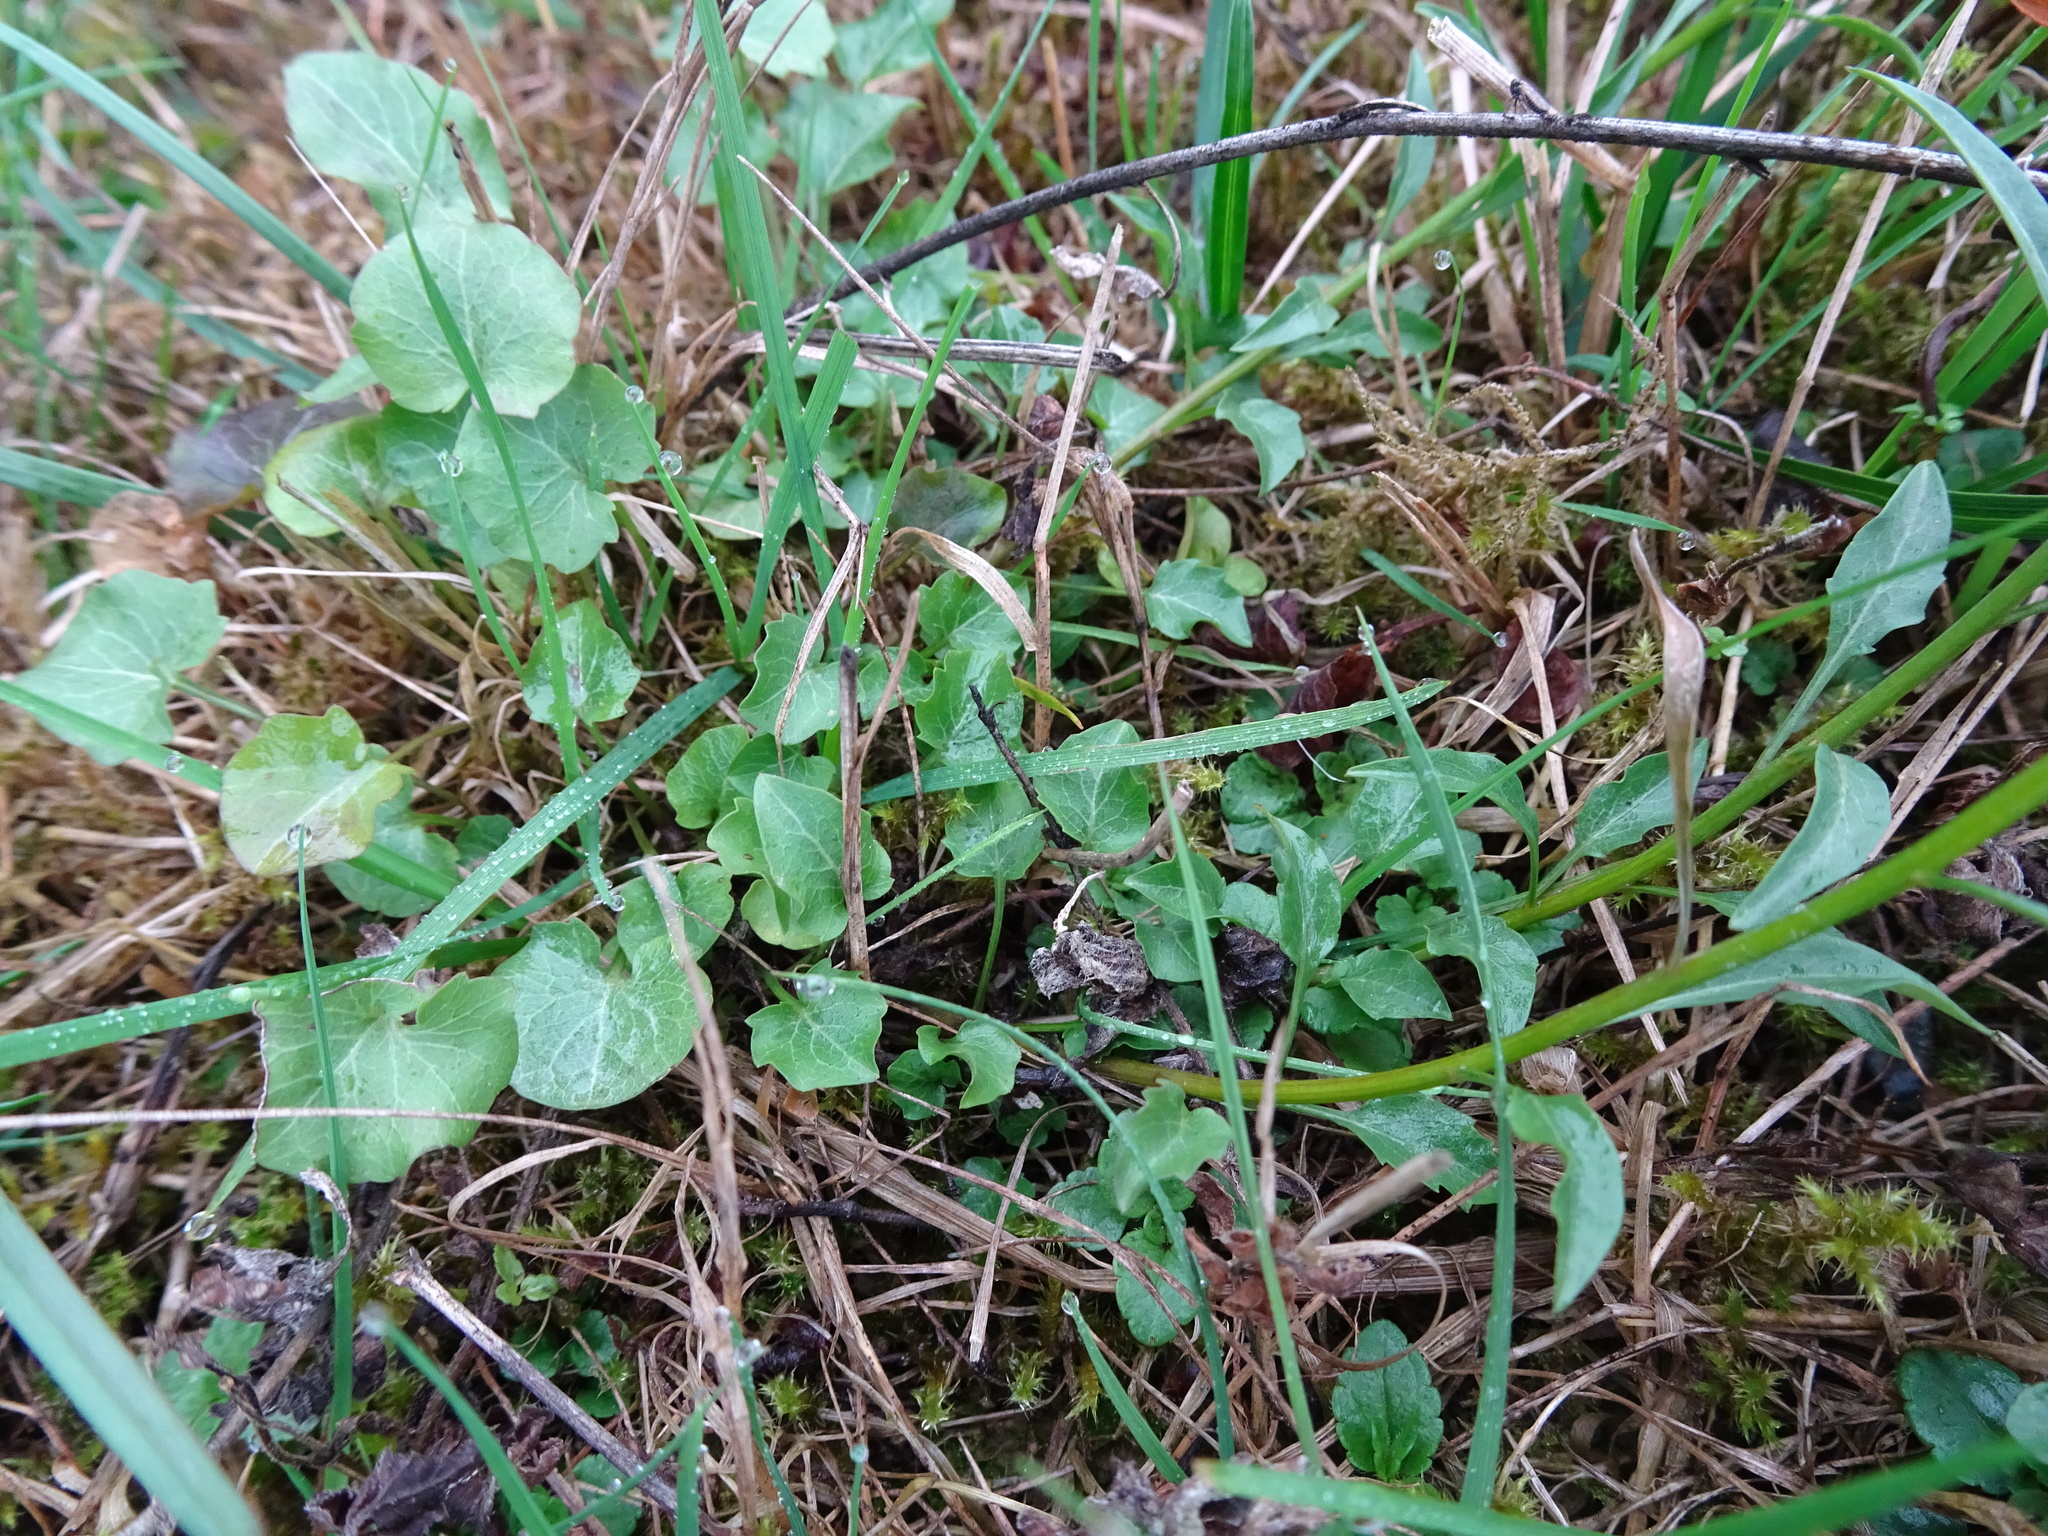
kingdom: Plantae
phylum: Tracheophyta
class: Magnoliopsida
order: Asterales
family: Campanulaceae
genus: Campanula
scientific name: Campanula rotundifolia
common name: Harebell
